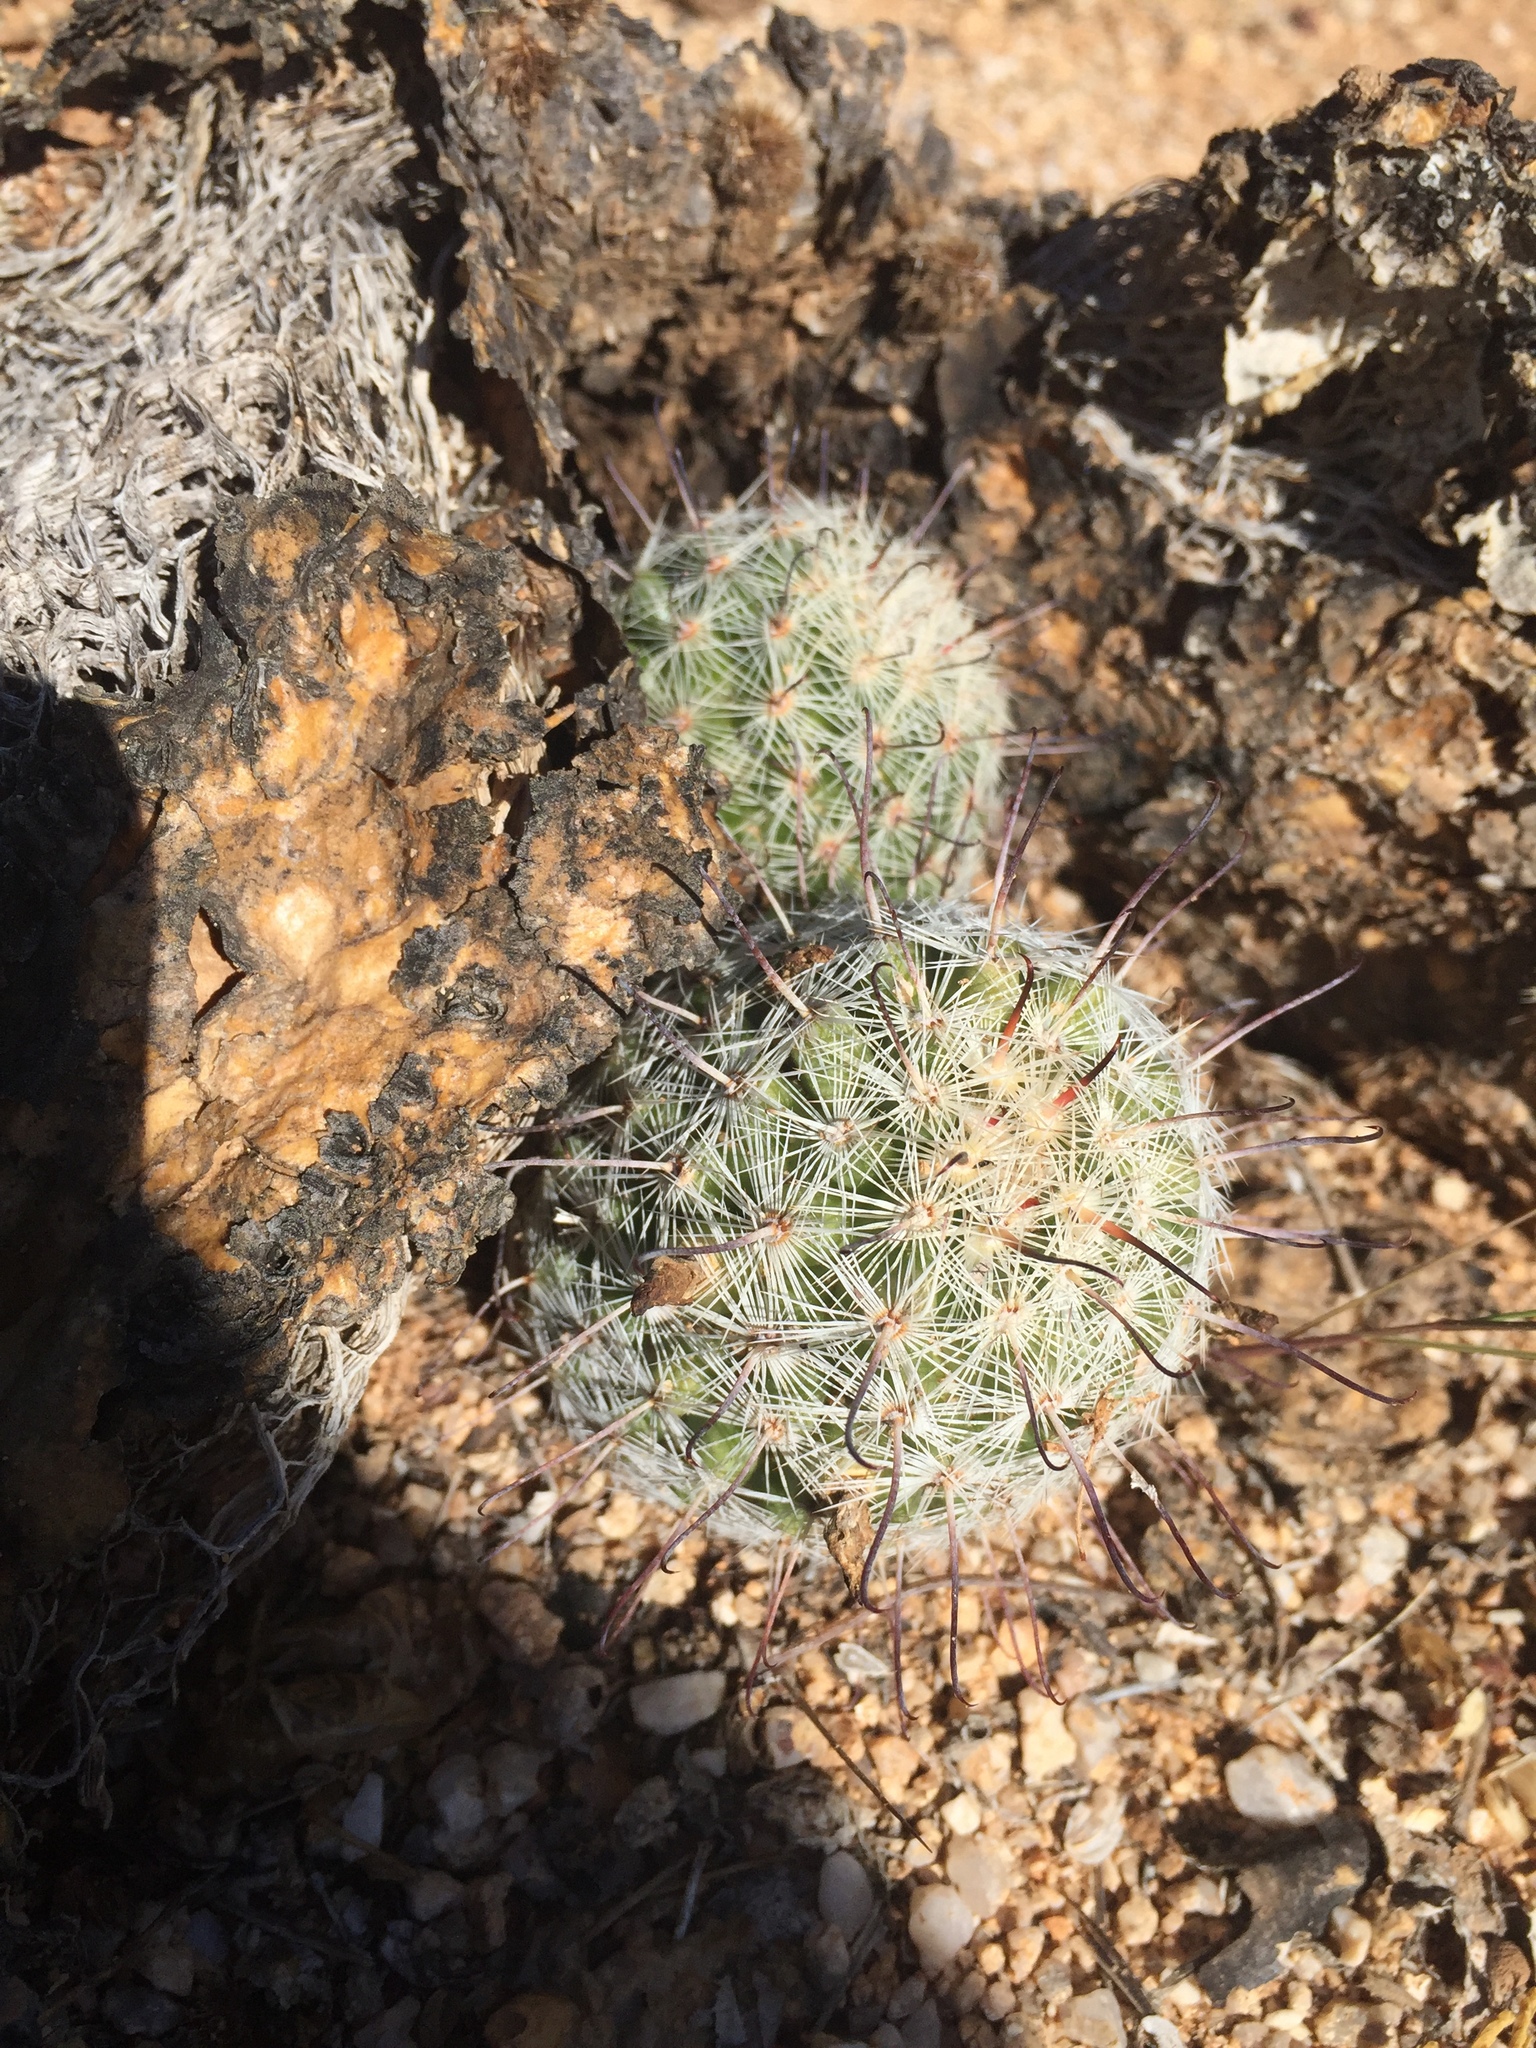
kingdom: Plantae
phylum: Tracheophyta
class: Magnoliopsida
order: Caryophyllales
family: Cactaceae
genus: Cochemiea
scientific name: Cochemiea grahamii
